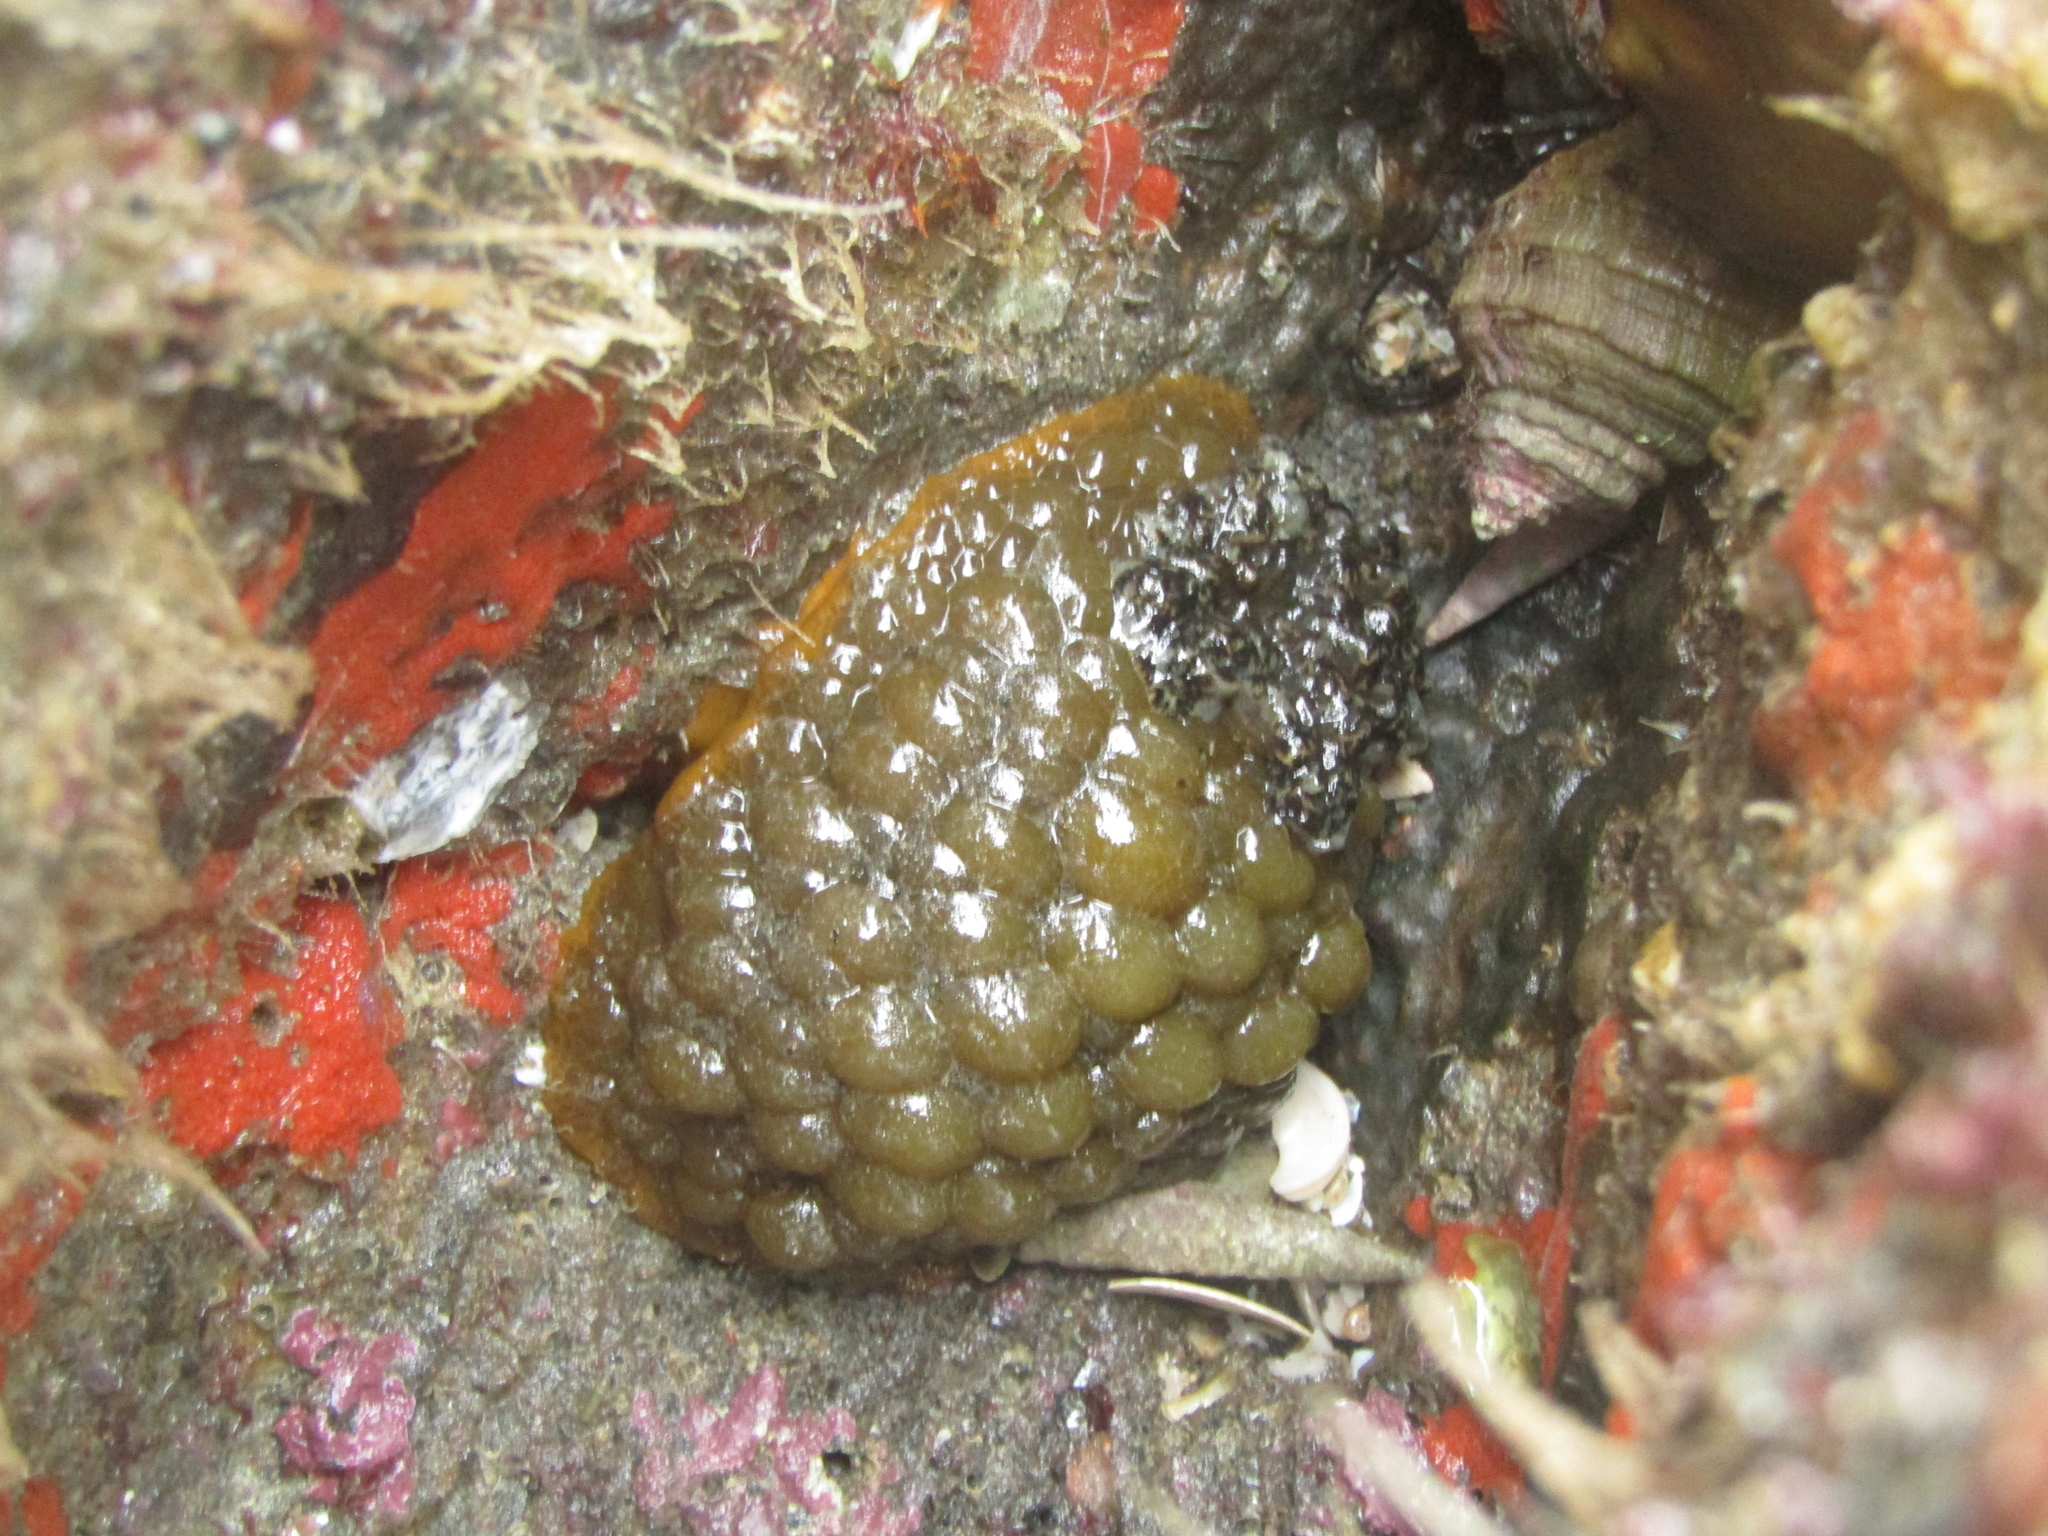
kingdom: Animalia
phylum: Mollusca
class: Gastropoda
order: Nudibranchia
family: Dorididae
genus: Doris
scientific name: Doris wellingtonensis
